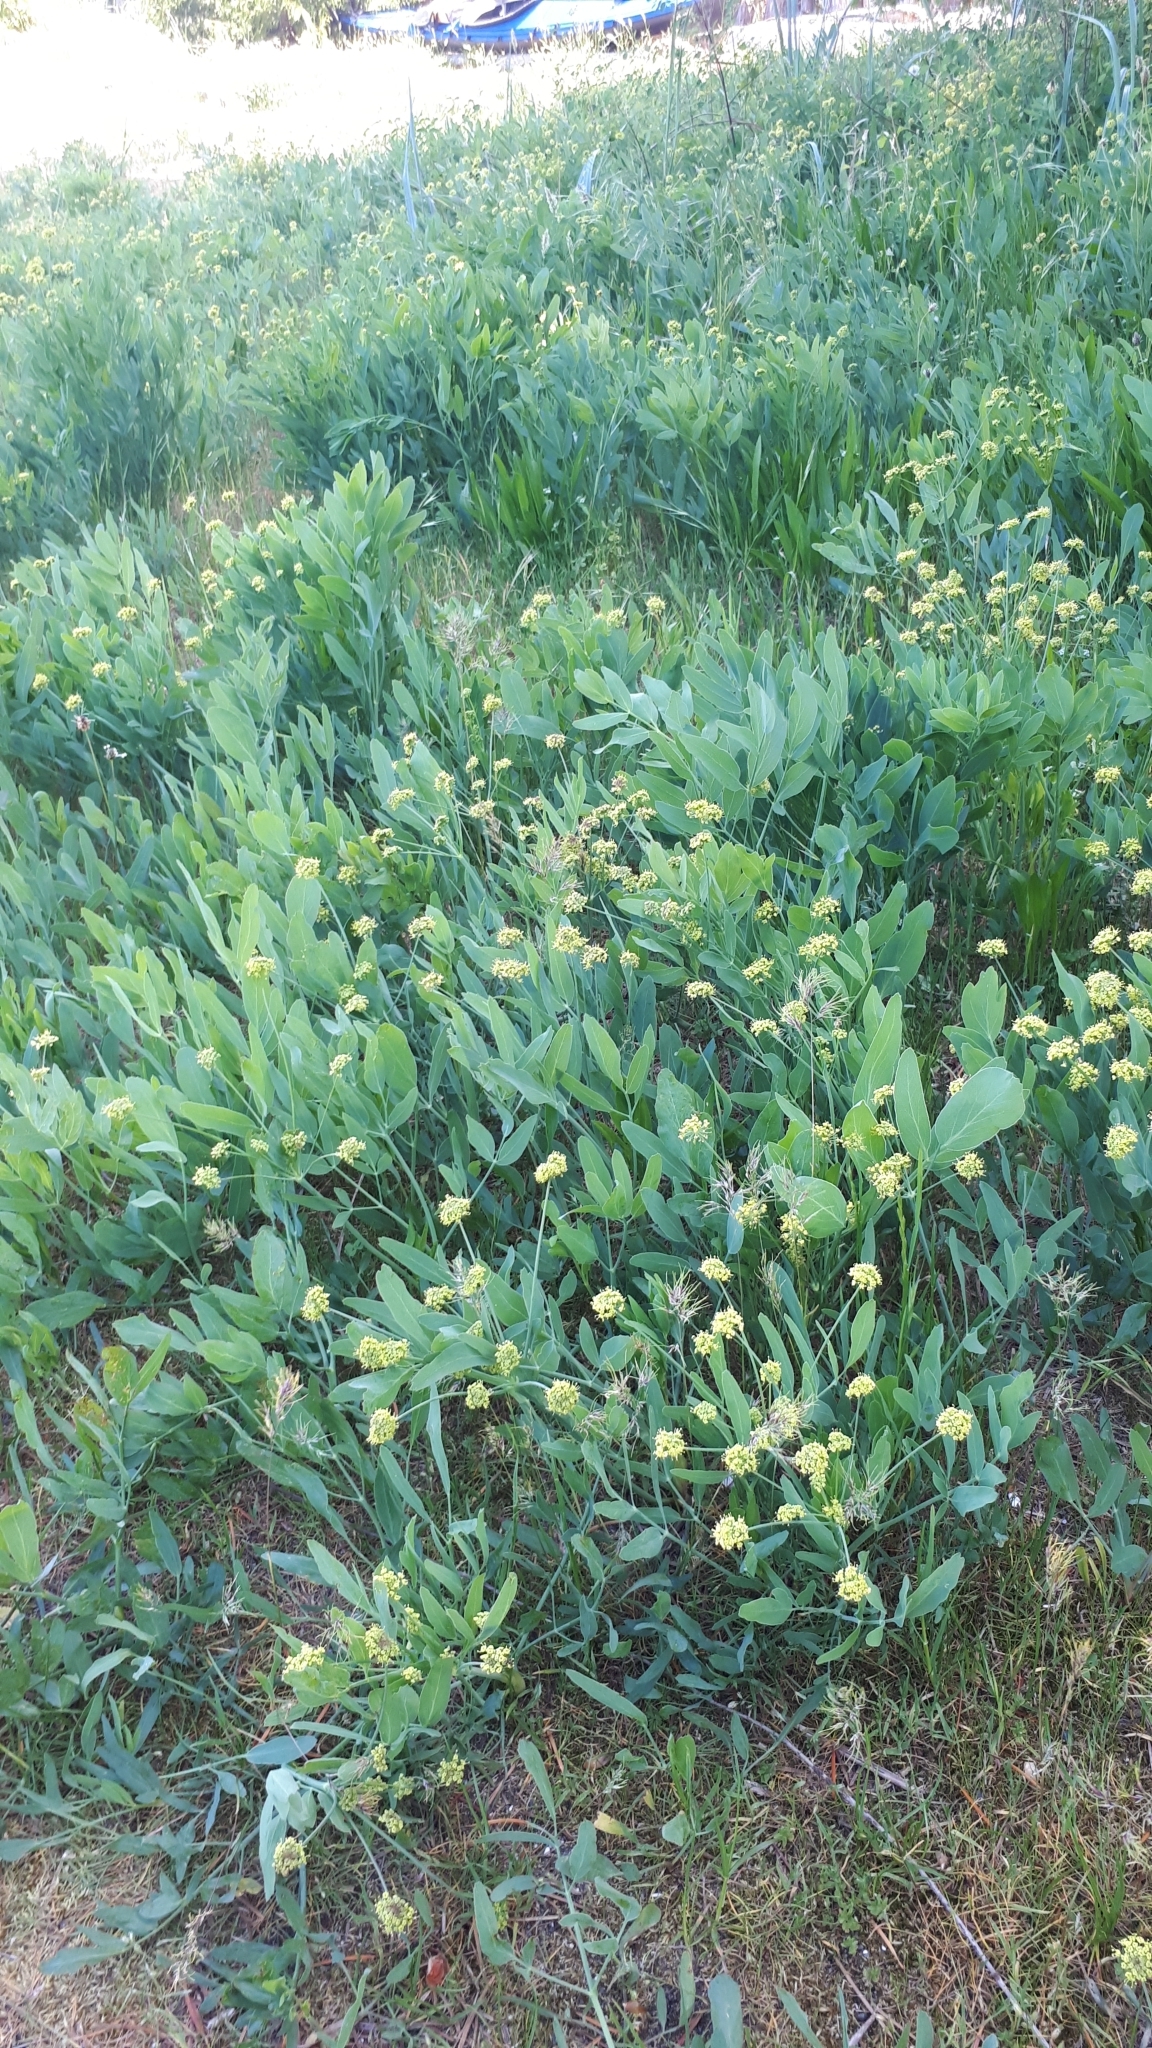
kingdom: Plantae
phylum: Tracheophyta
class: Magnoliopsida
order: Apiales
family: Apiaceae
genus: Lomatium
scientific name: Lomatium nudicaule
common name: Pestle lomatium
